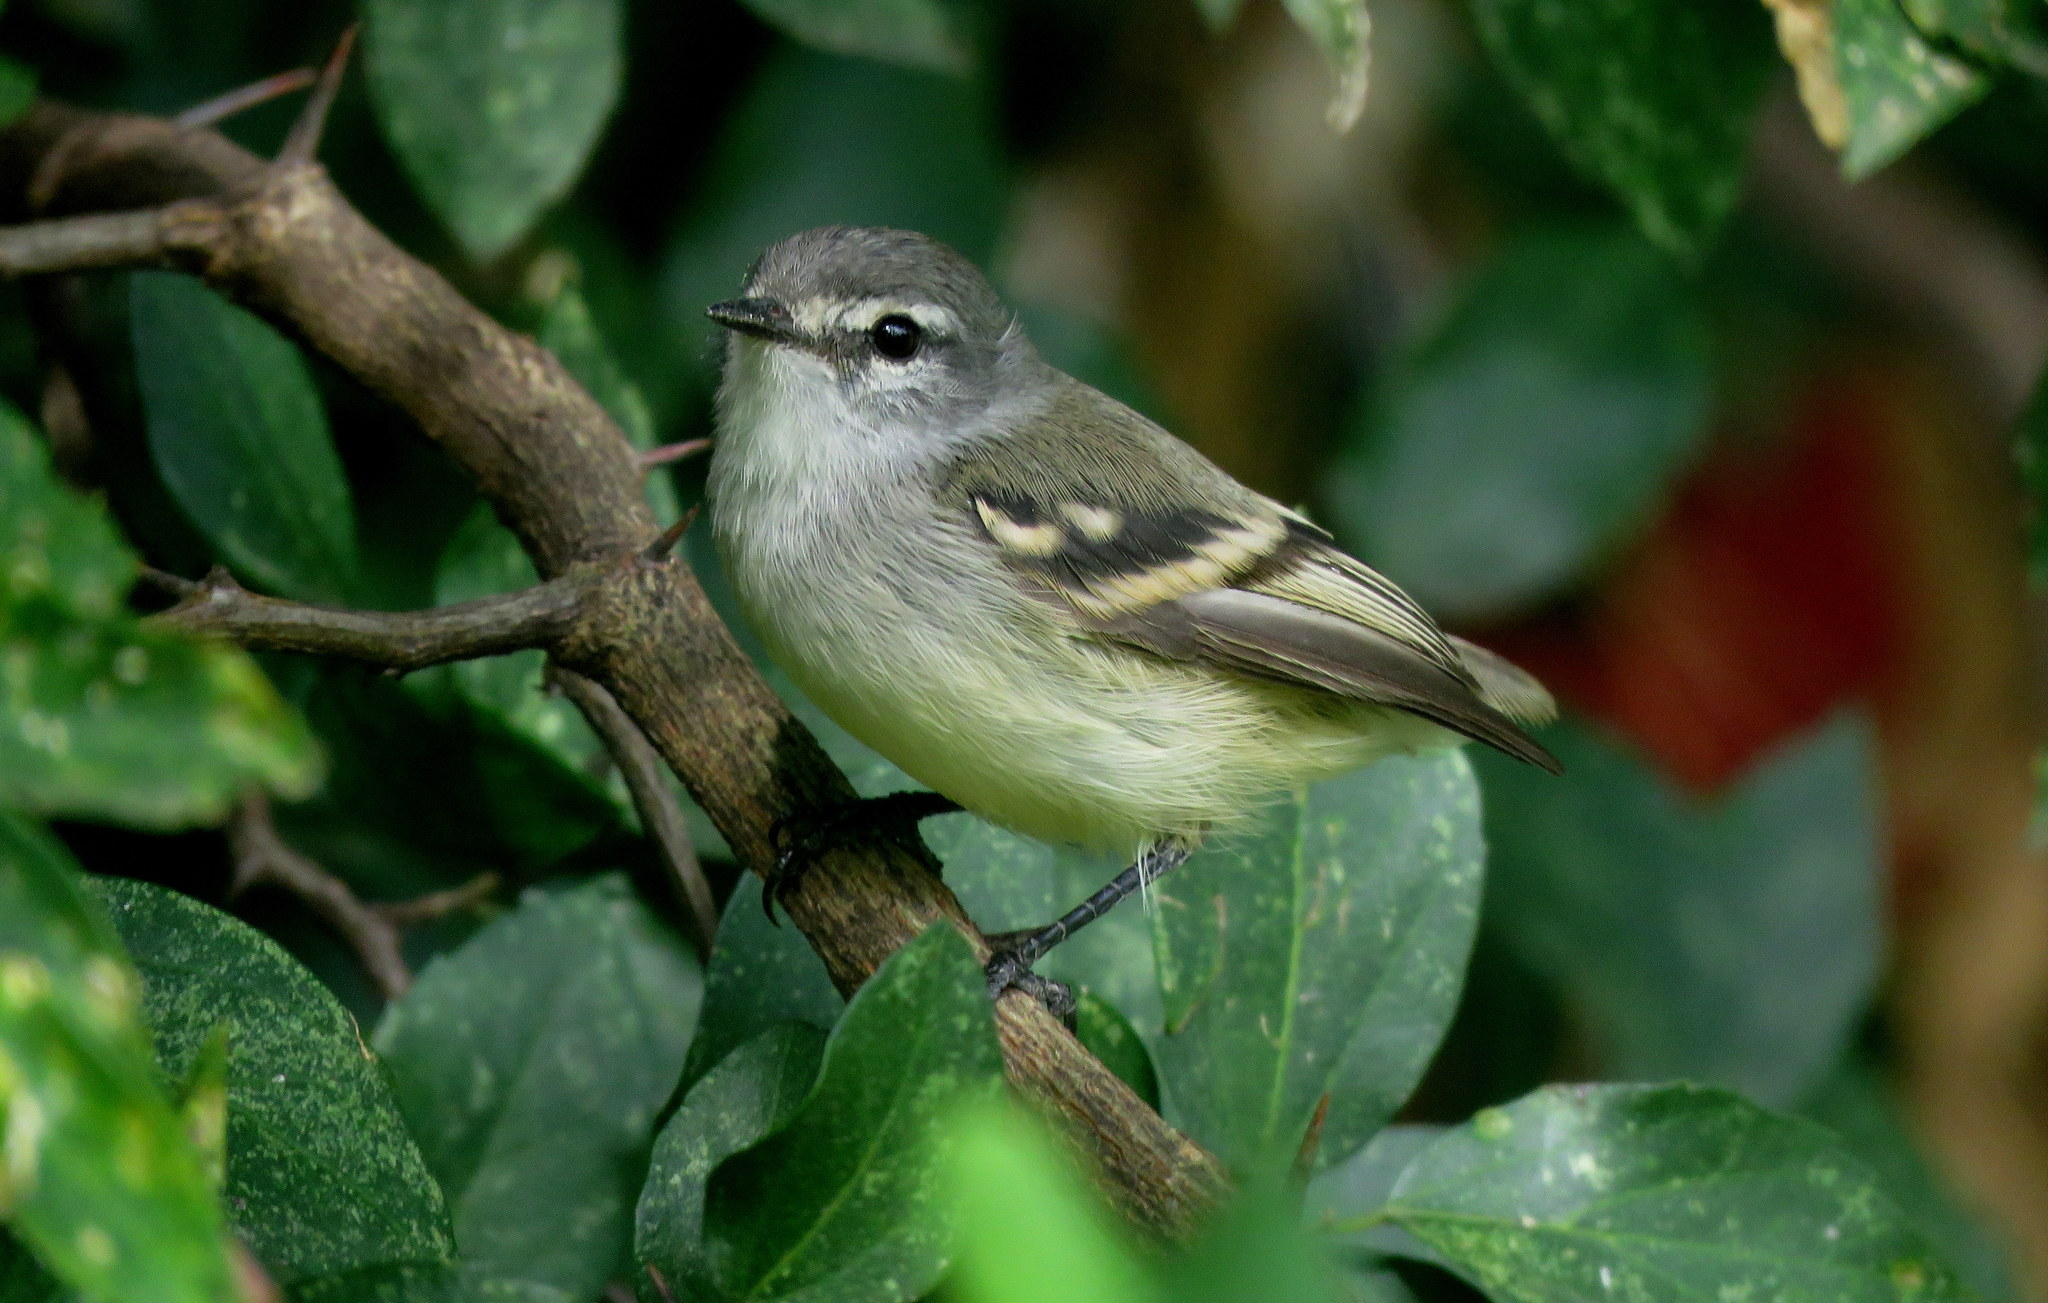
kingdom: Animalia
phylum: Chordata
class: Aves
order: Passeriformes
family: Tyrannidae
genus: Serpophaga
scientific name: Serpophaga subcristata
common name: White-crested tyrannulet
